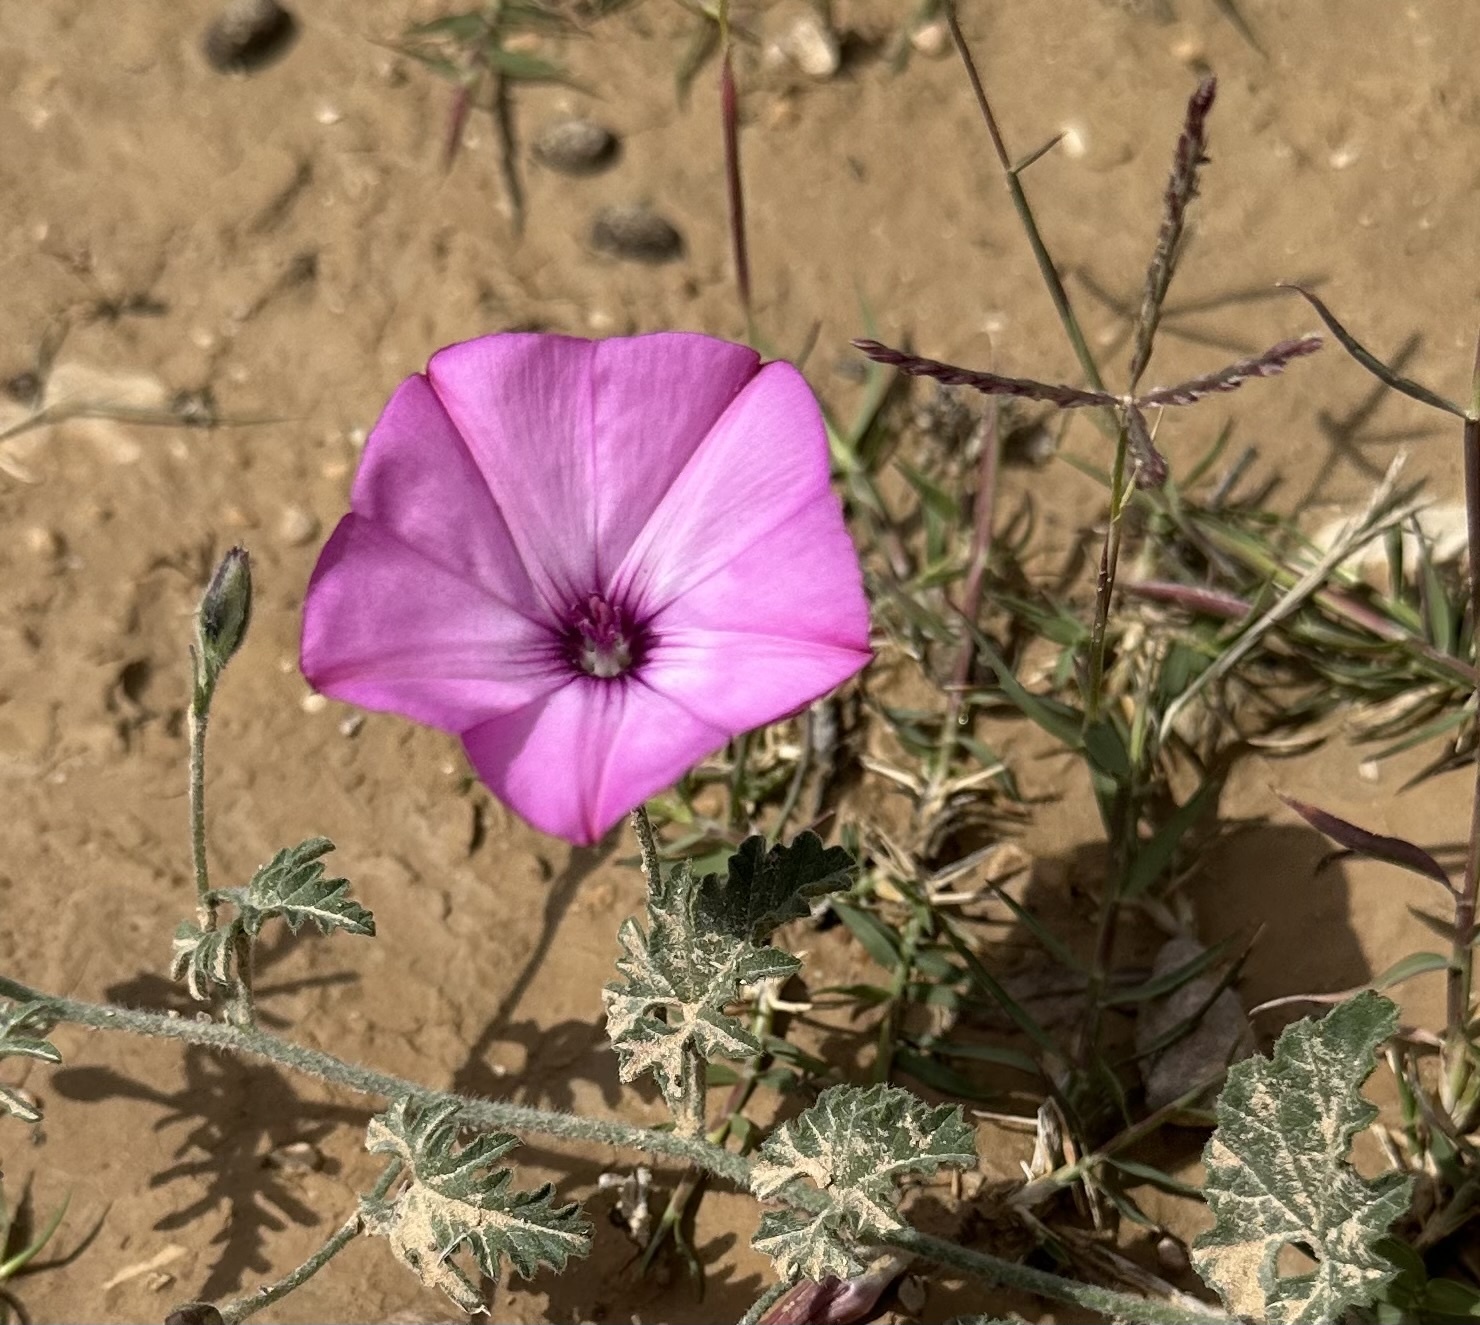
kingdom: Plantae
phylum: Tracheophyta
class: Magnoliopsida
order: Solanales
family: Convolvulaceae
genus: Convolvulus
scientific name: Convolvulus althaeoides
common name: Mallow bindweed
